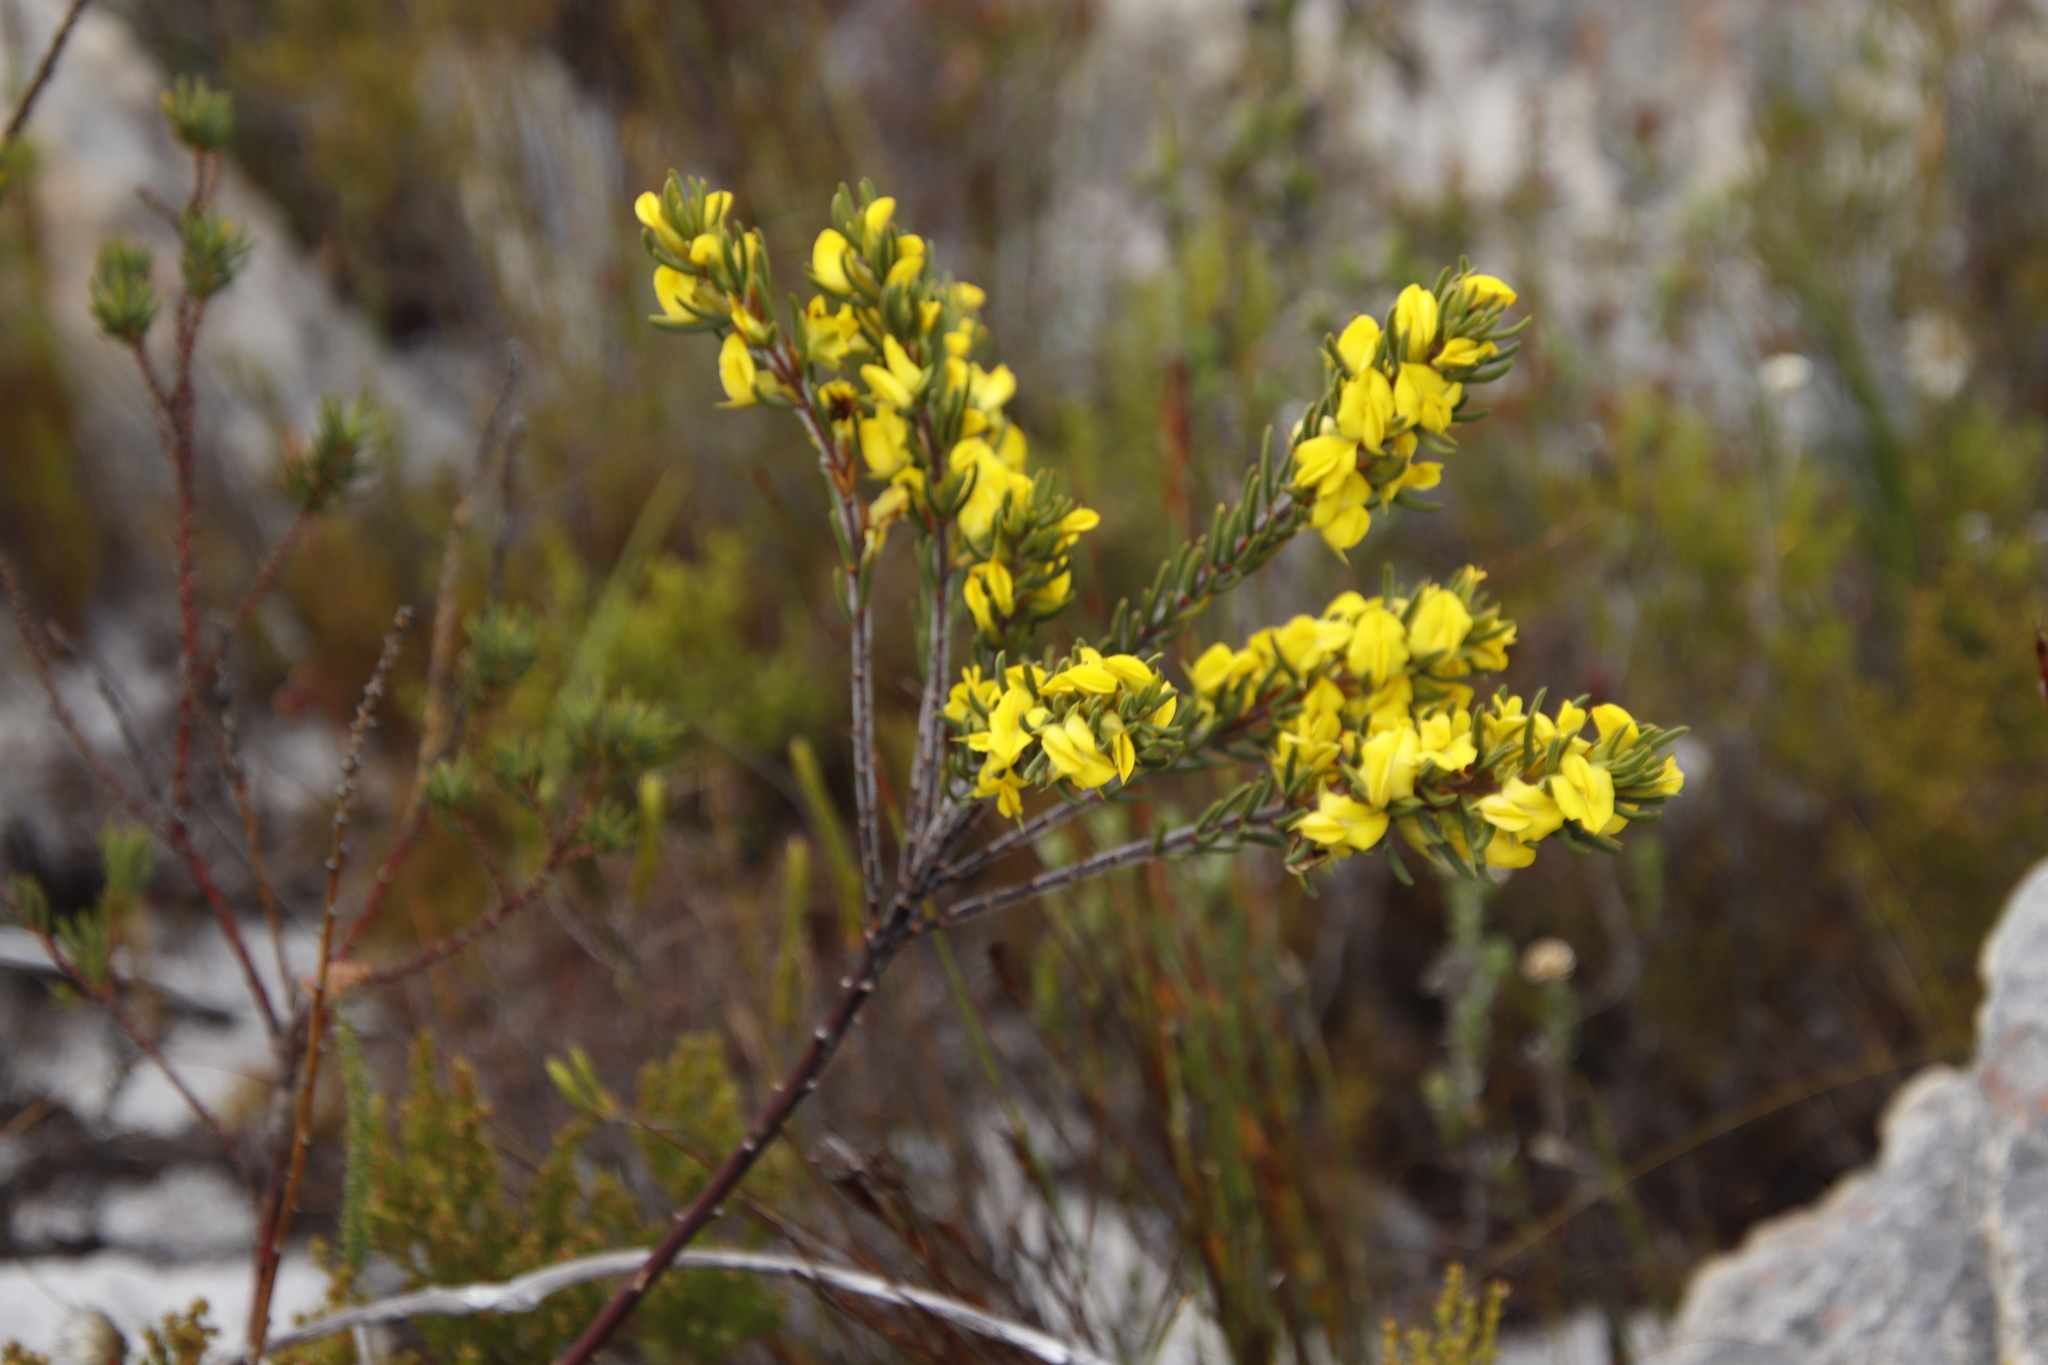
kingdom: Plantae
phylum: Tracheophyta
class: Magnoliopsida
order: Fabales
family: Fabaceae
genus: Cyclopia
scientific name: Cyclopia galioides
